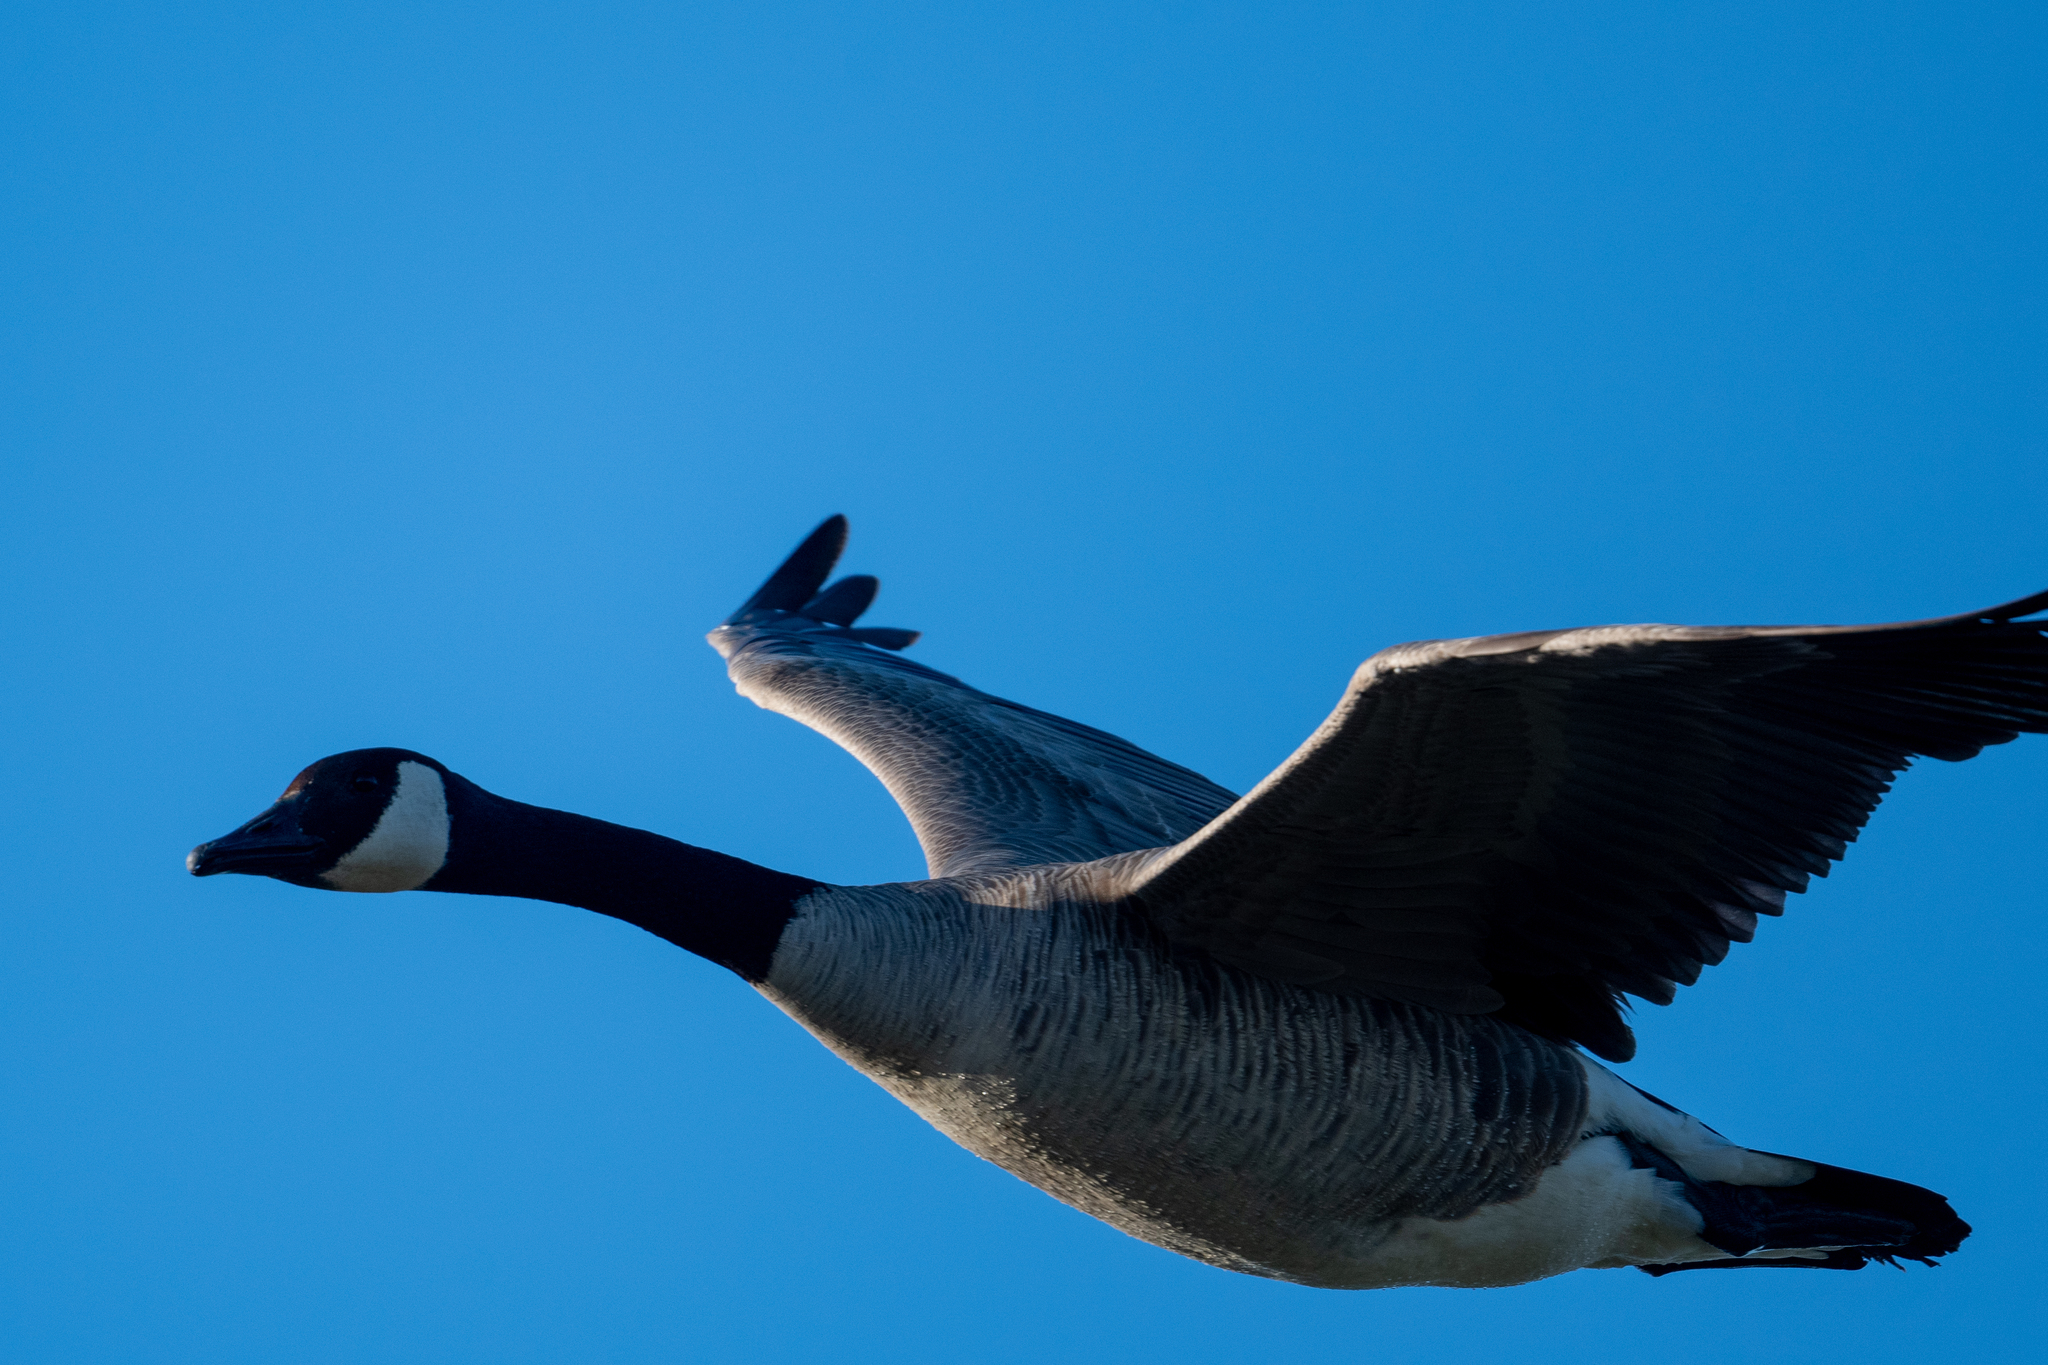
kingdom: Animalia
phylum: Chordata
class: Aves
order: Anseriformes
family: Anatidae
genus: Branta
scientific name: Branta canadensis
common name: Canada goose
